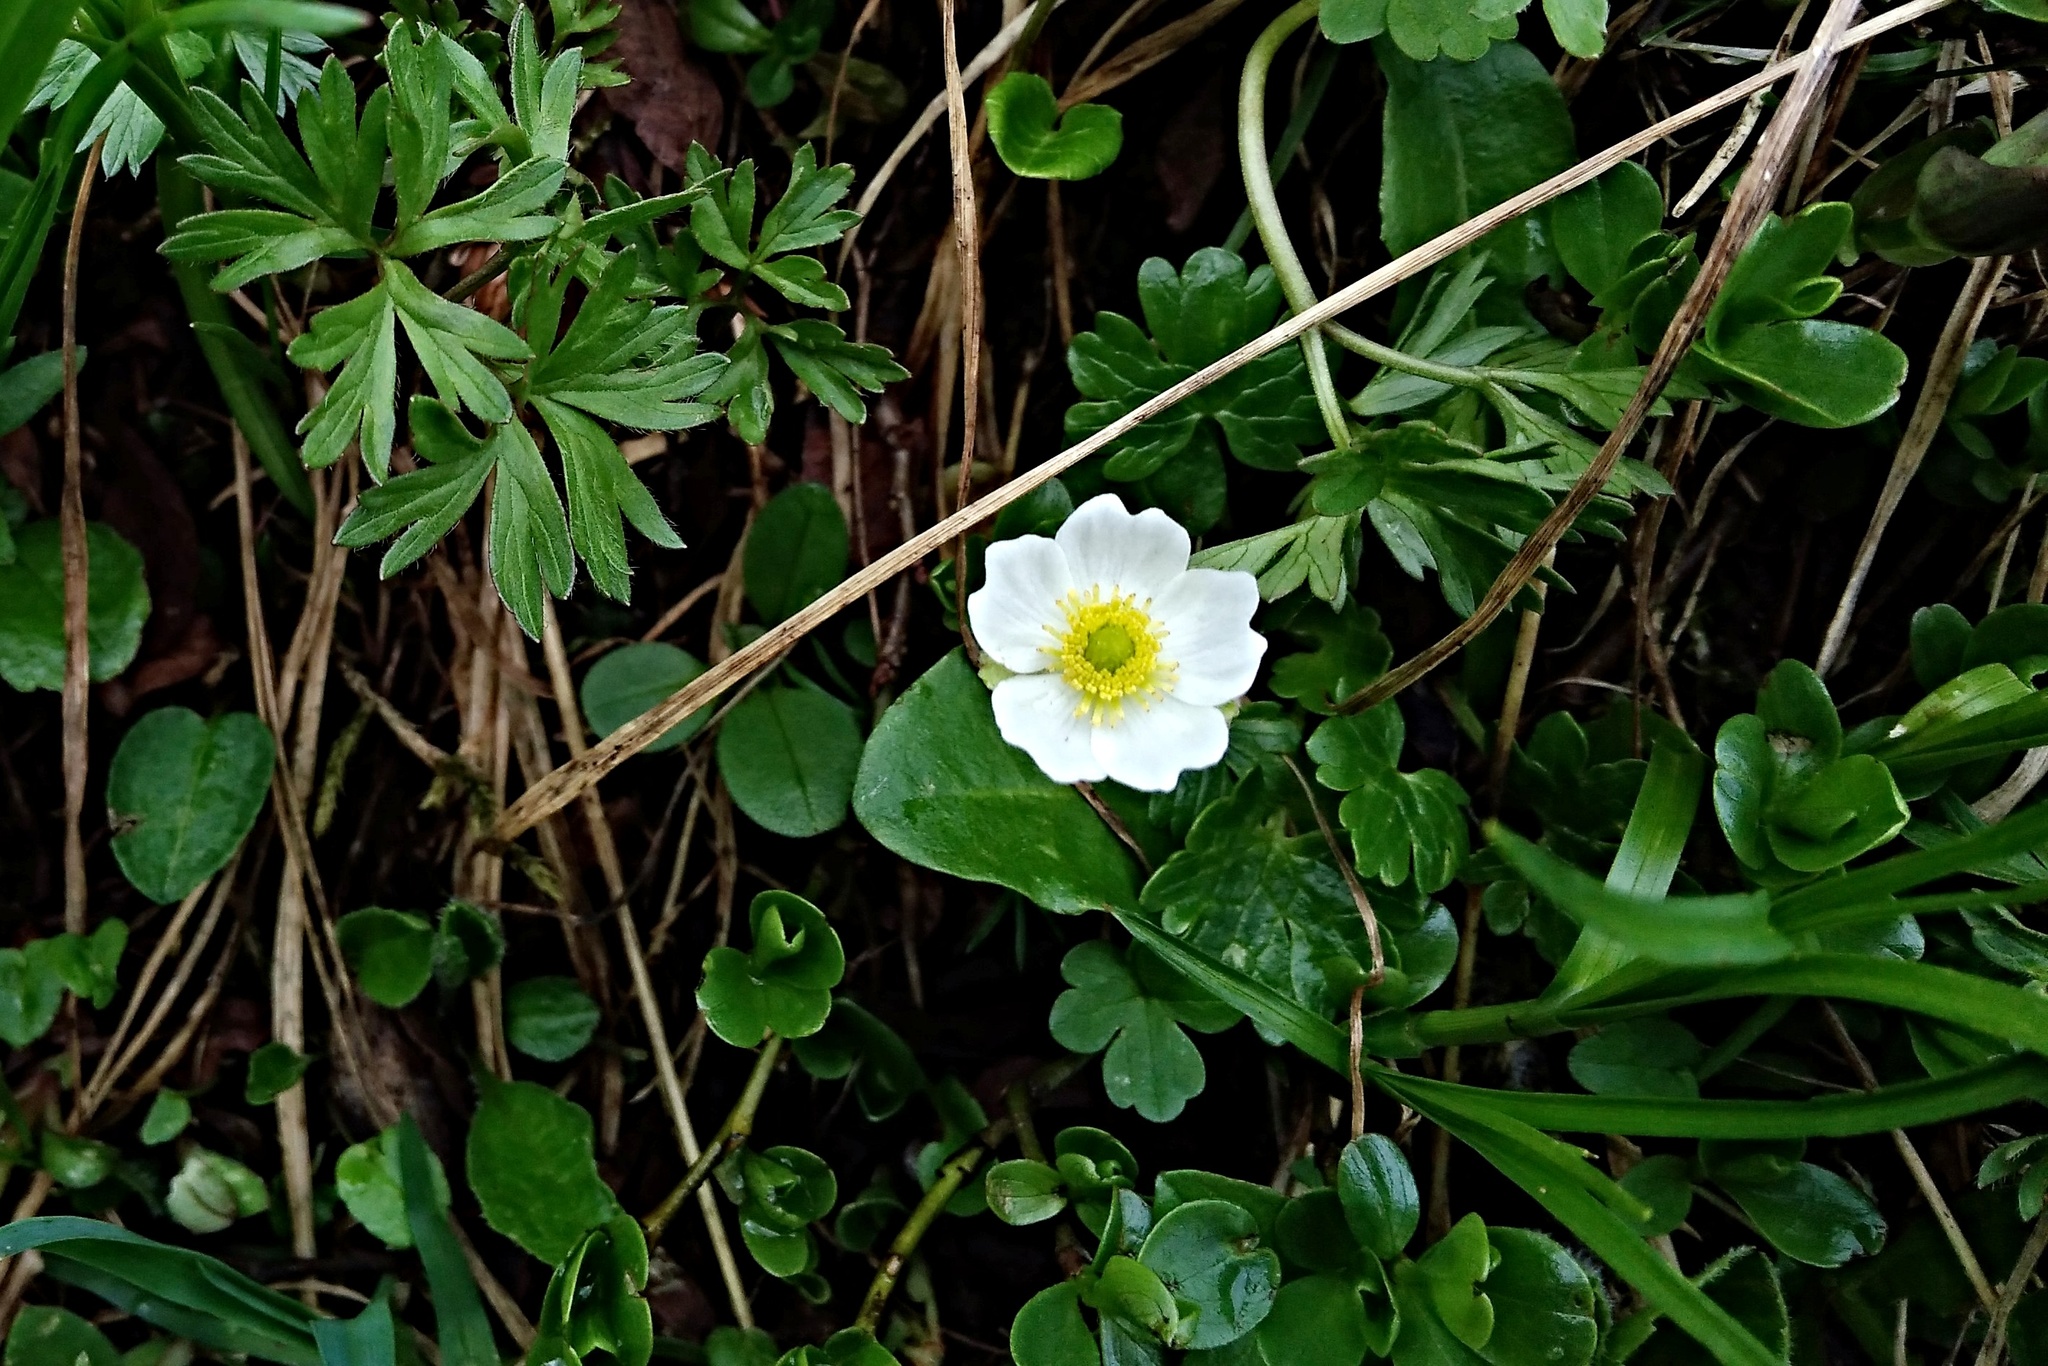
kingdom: Plantae
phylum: Tracheophyta
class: Magnoliopsida
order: Ranunculales
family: Ranunculaceae
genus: Ranunculus
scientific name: Ranunculus alpestris
